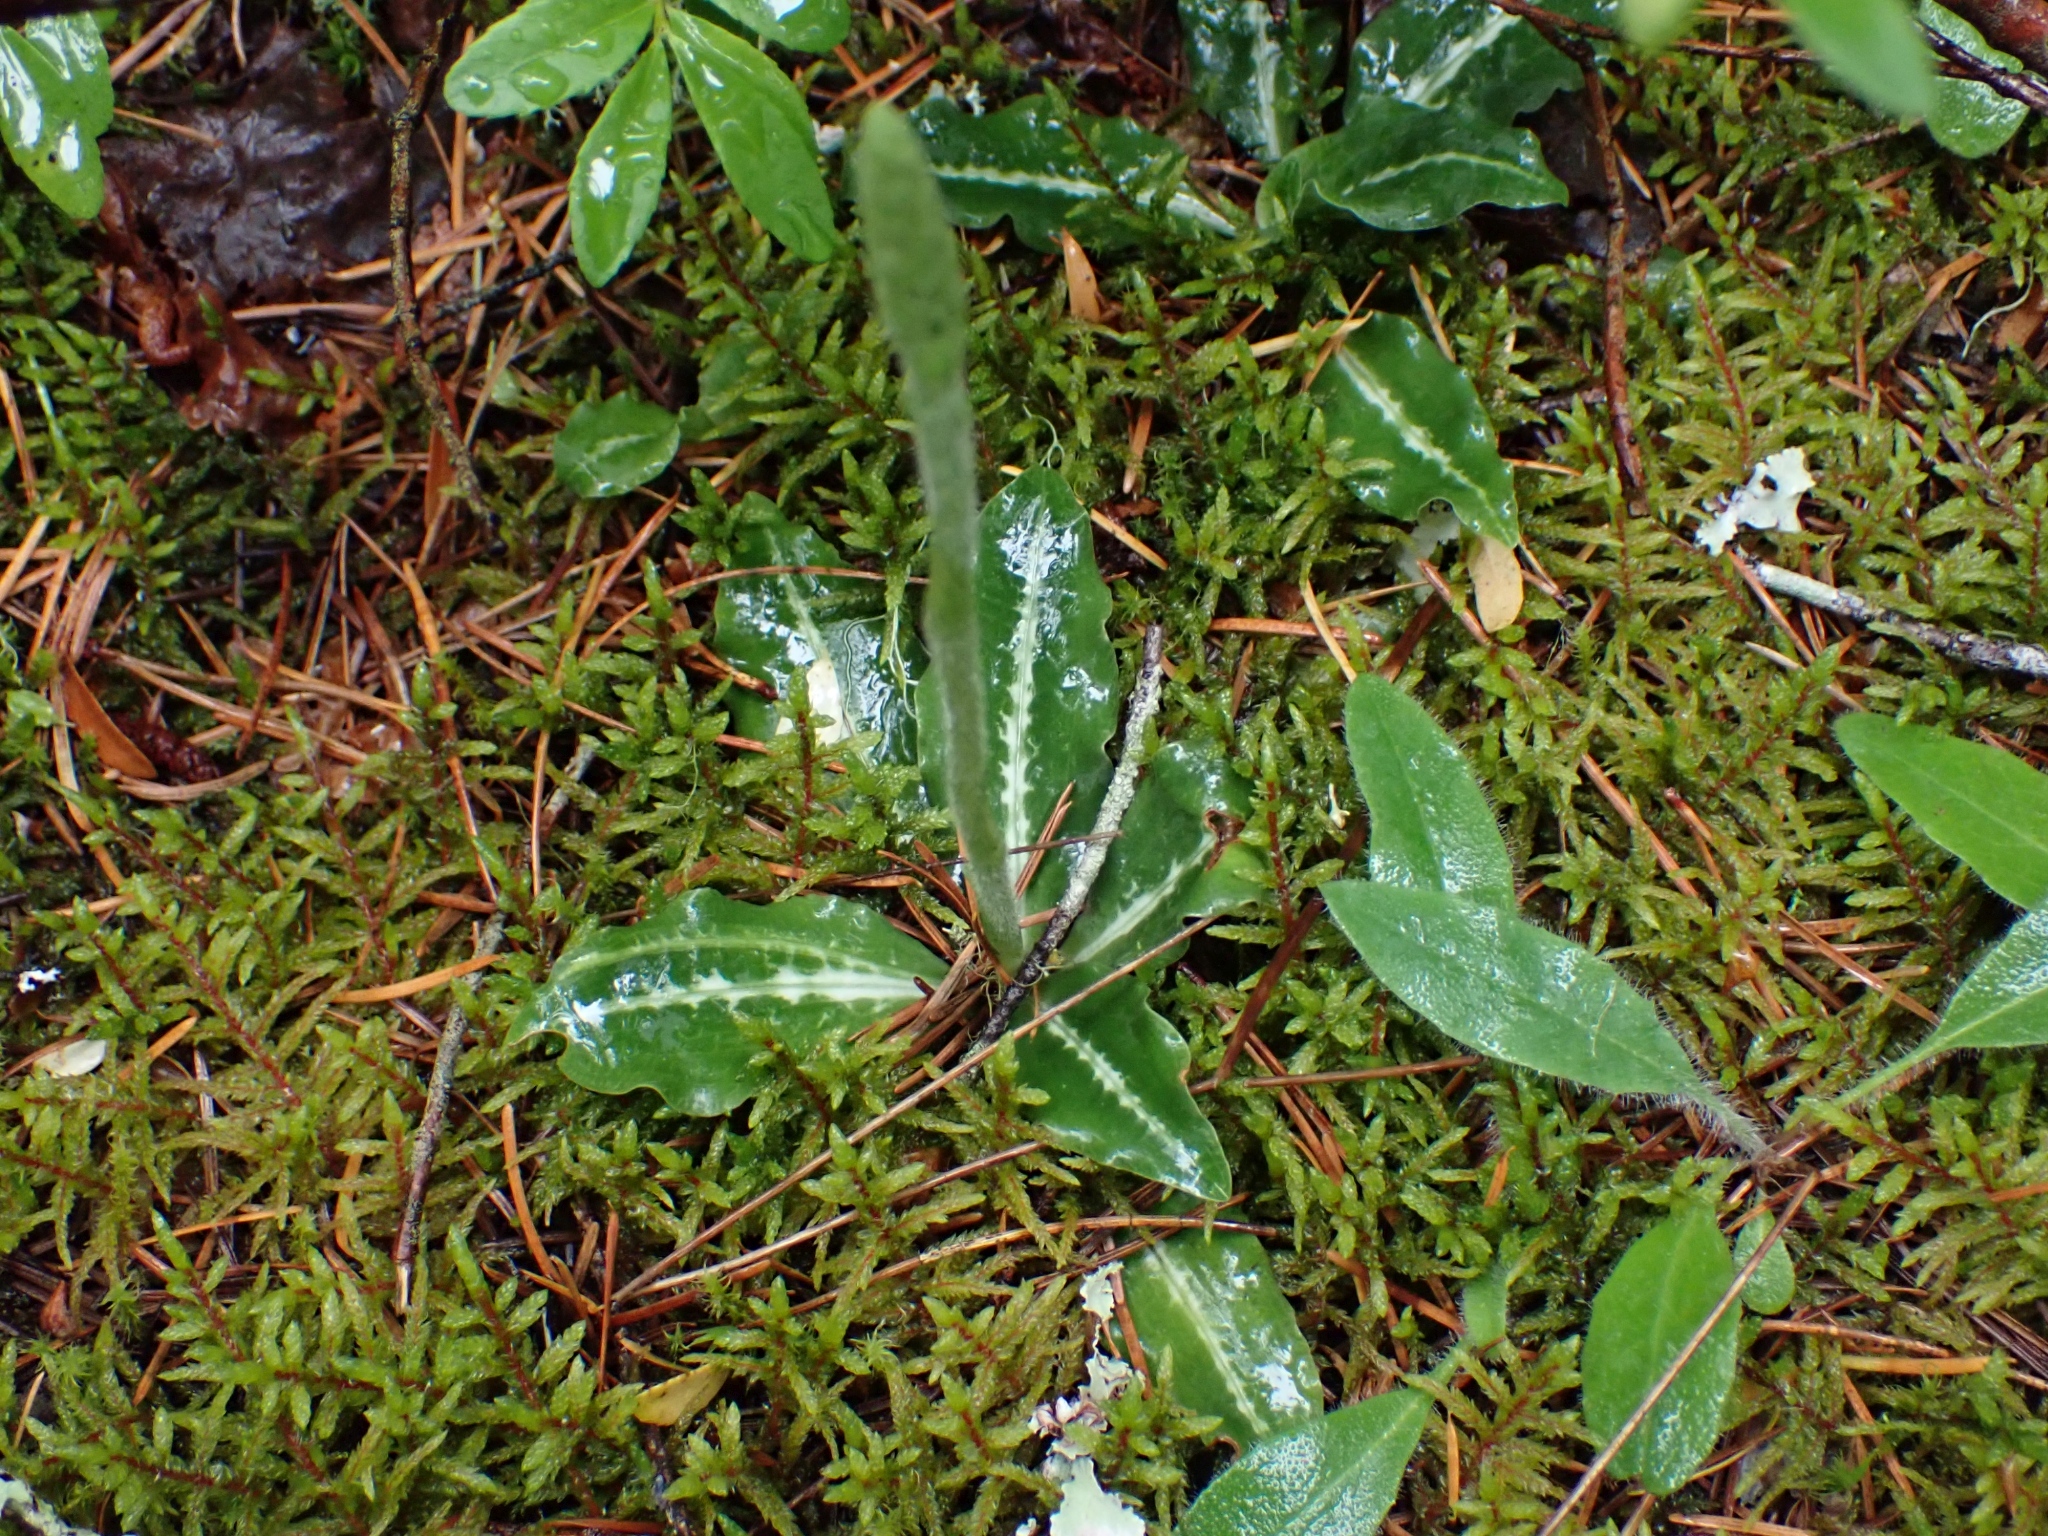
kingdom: Plantae
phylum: Tracheophyta
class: Liliopsida
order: Asparagales
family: Orchidaceae
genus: Goodyera
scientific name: Goodyera oblongifolia
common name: Giant rattlesnake-plantain
